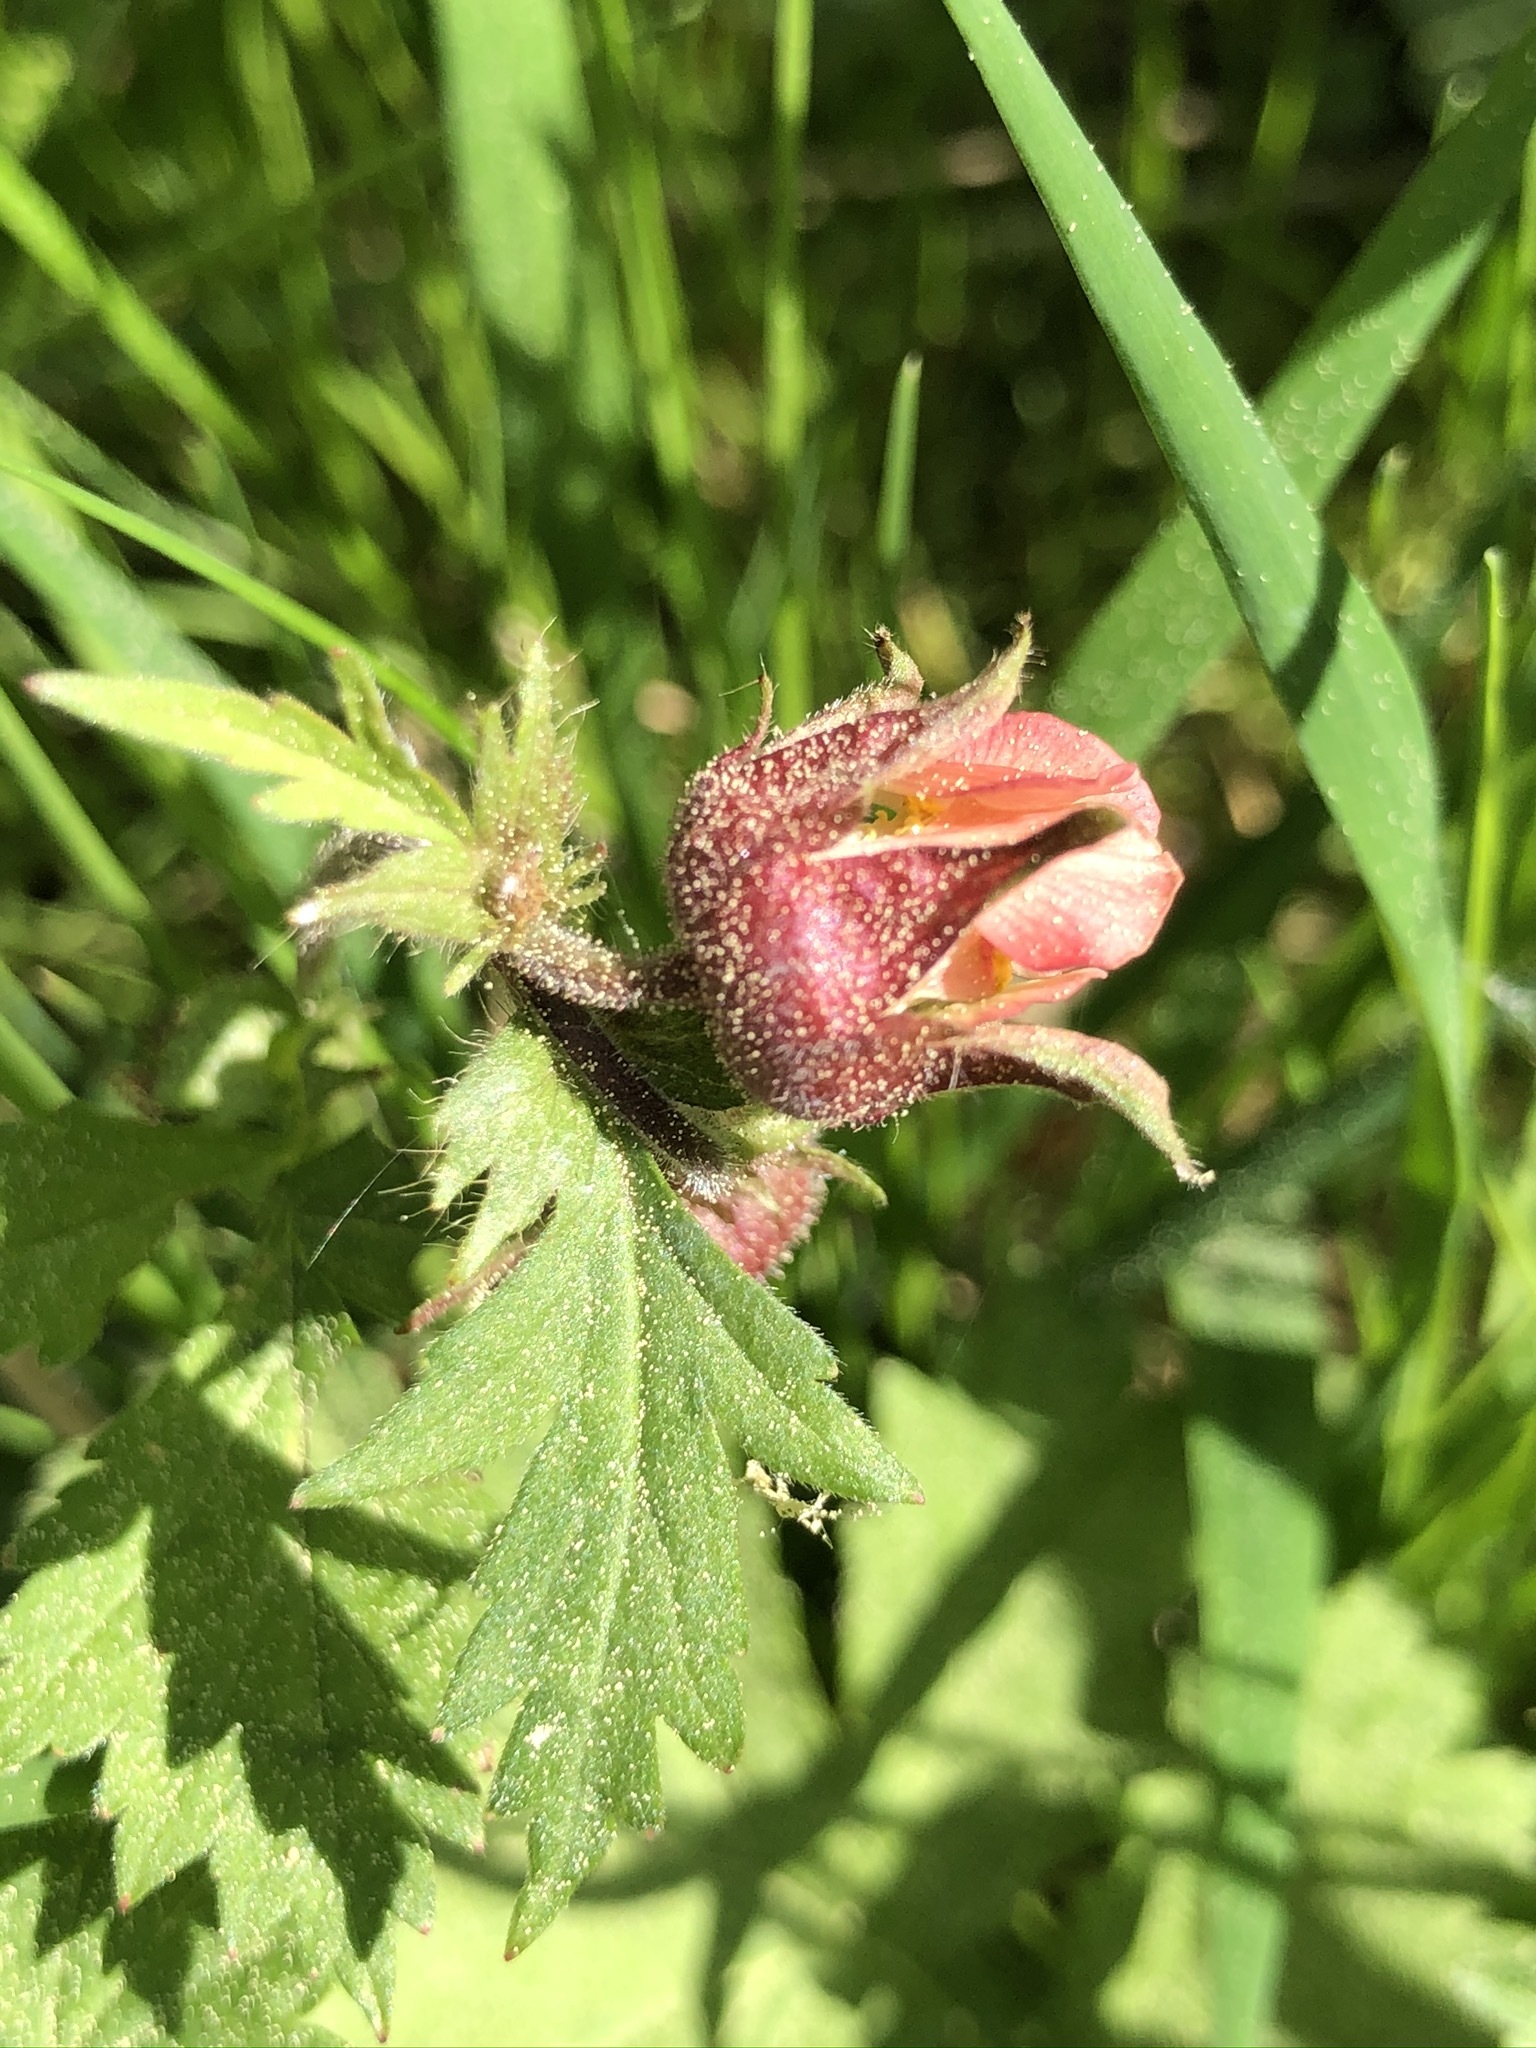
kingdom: Plantae
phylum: Tracheophyta
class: Magnoliopsida
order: Rosales
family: Rosaceae
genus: Geum
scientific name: Geum rivale
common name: Water avens
